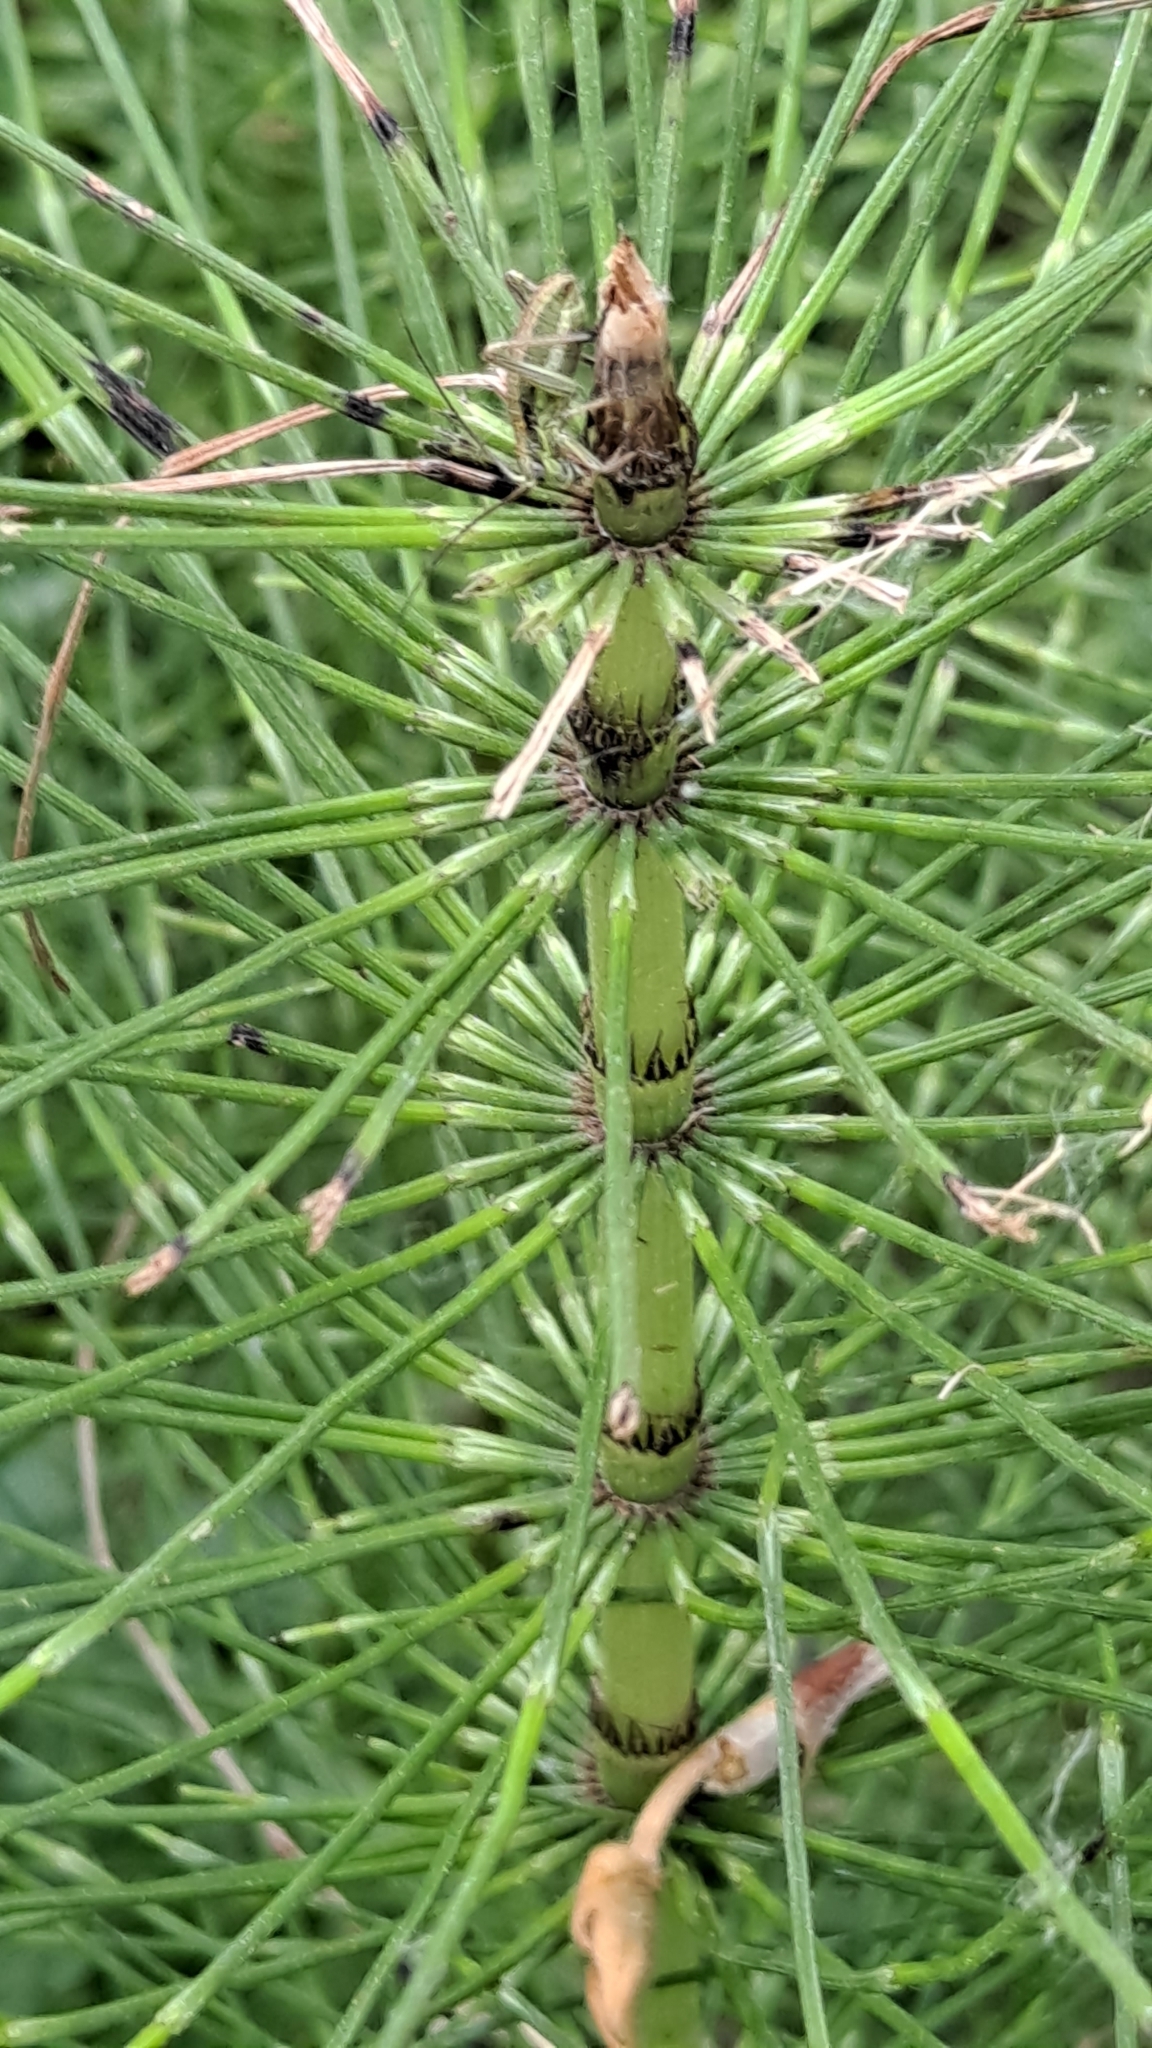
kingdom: Plantae
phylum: Tracheophyta
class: Polypodiopsida
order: Equisetales
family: Equisetaceae
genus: Equisetum
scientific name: Equisetum telmateia
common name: Great horsetail
